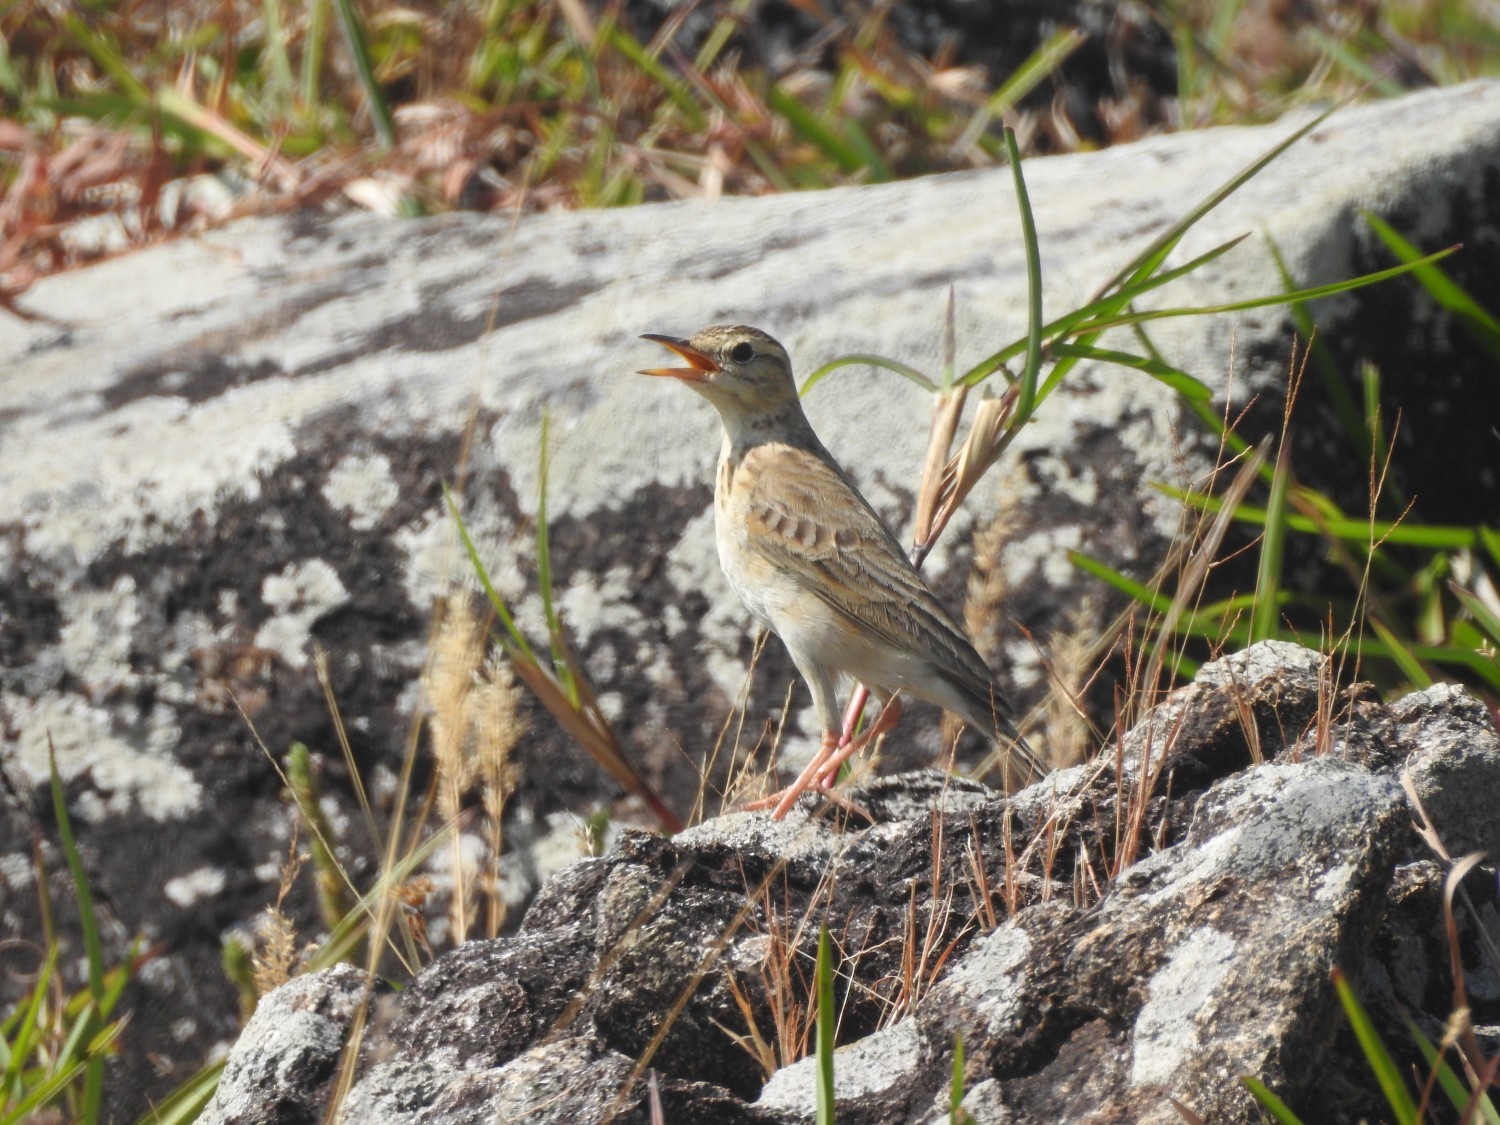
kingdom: Animalia
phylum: Chordata
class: Aves
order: Passeriformes
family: Motacillidae
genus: Anthus
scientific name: Anthus rufulus
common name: Paddyfield pipit
